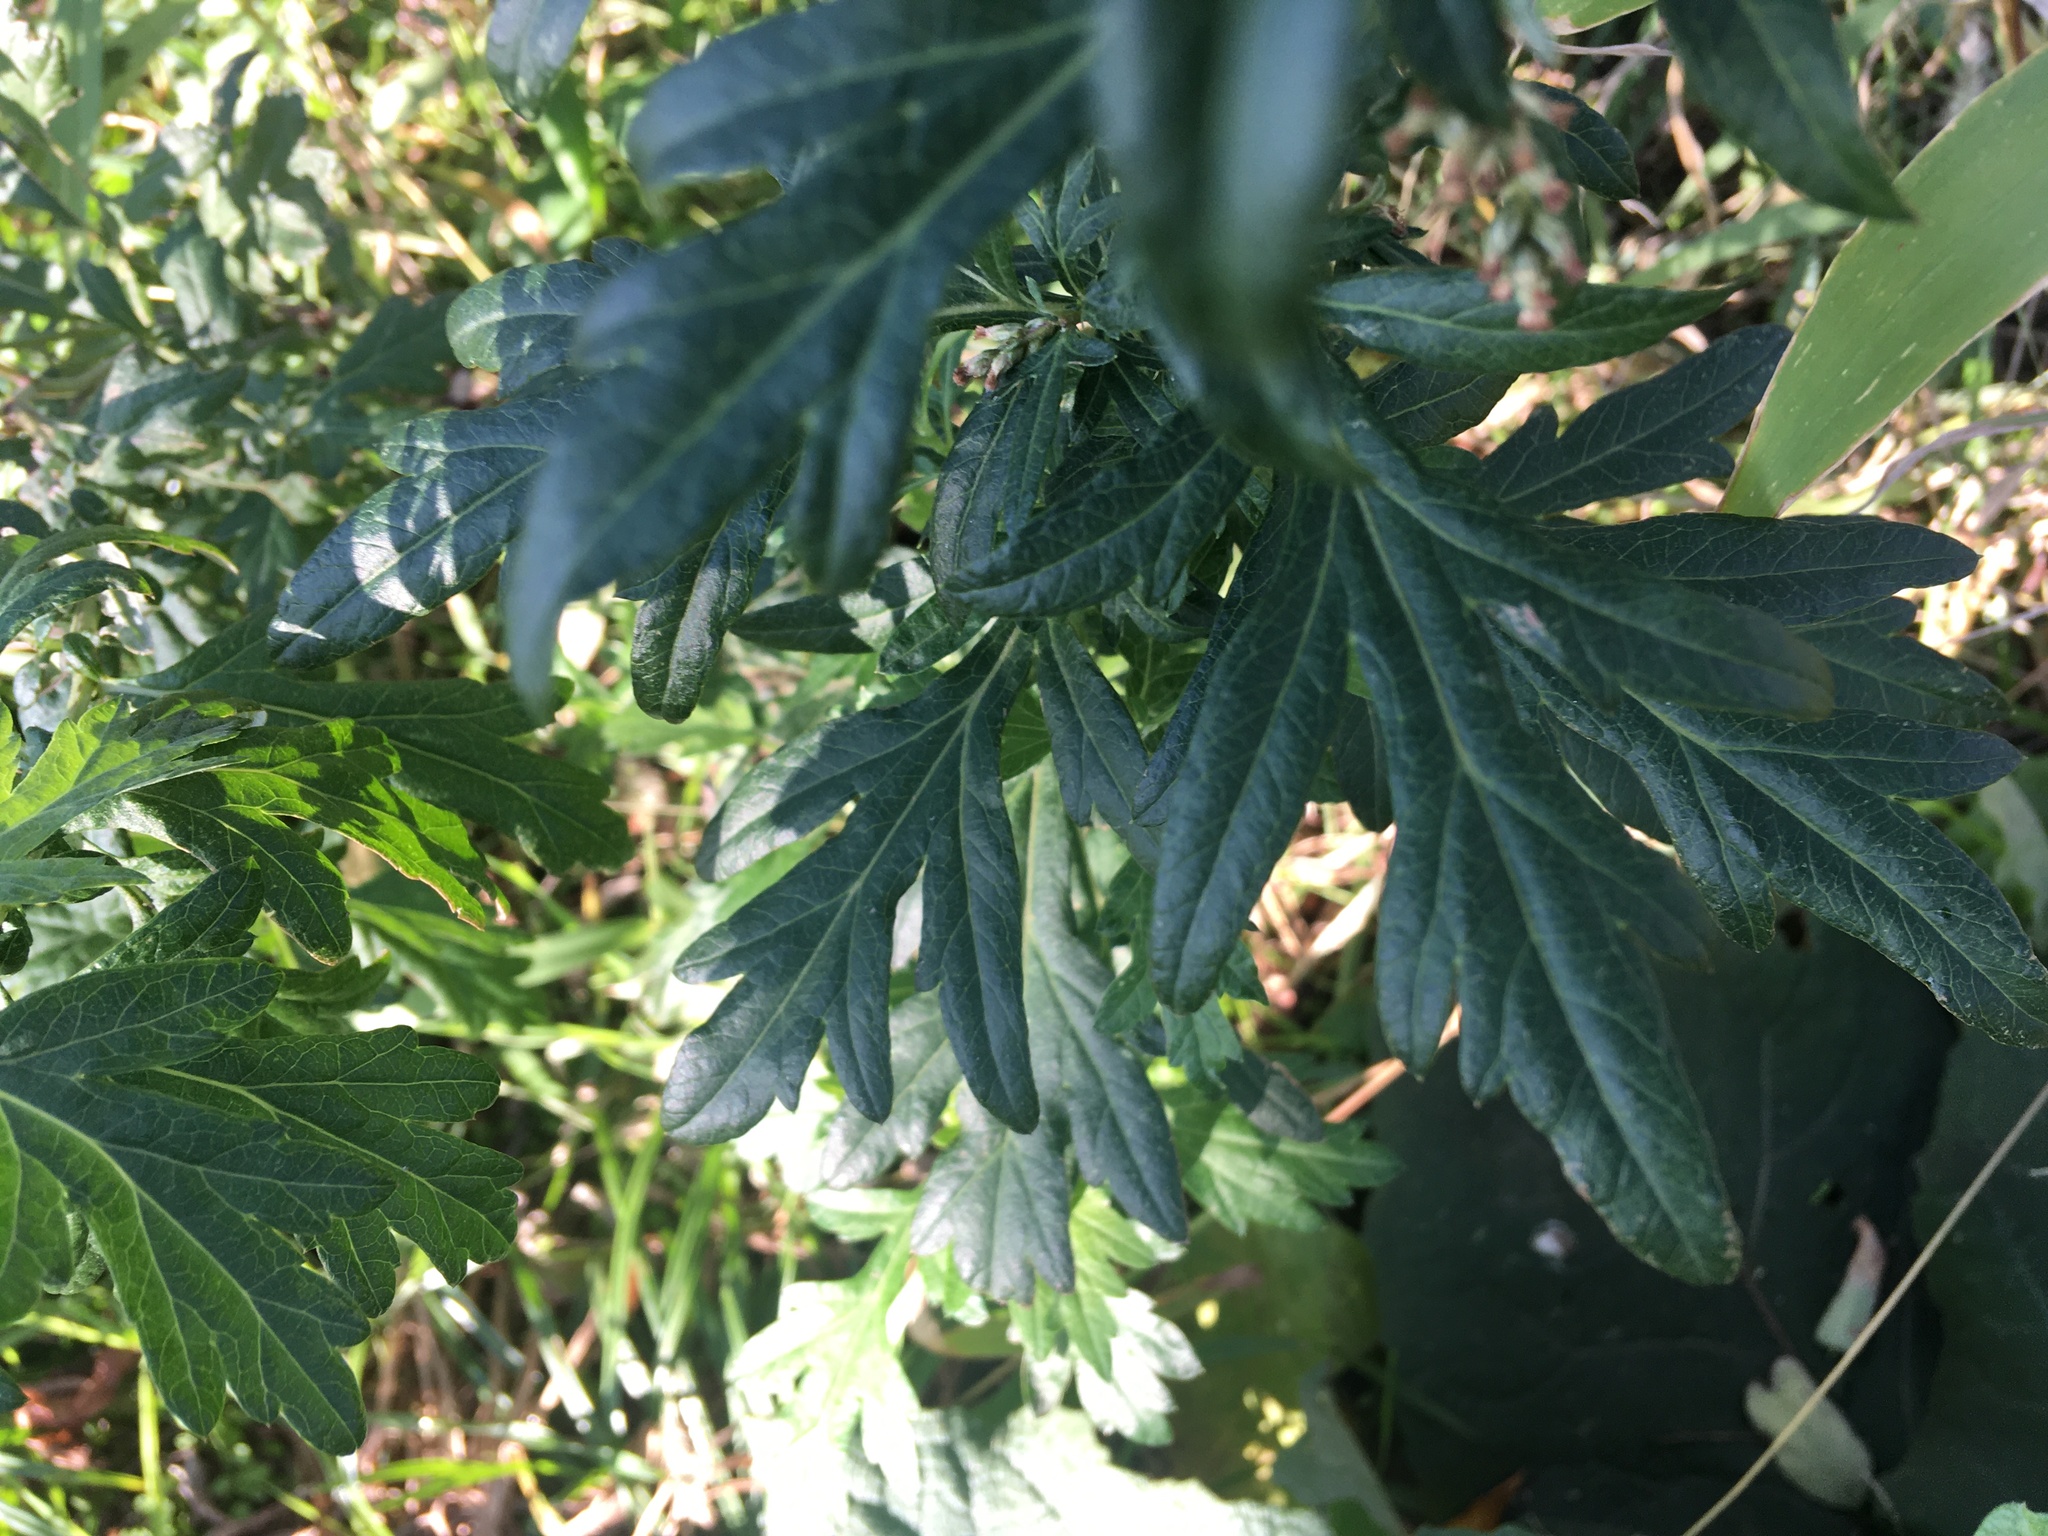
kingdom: Plantae
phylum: Tracheophyta
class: Magnoliopsida
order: Asterales
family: Asteraceae
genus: Artemisia
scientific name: Artemisia vulgaris
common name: Mugwort
